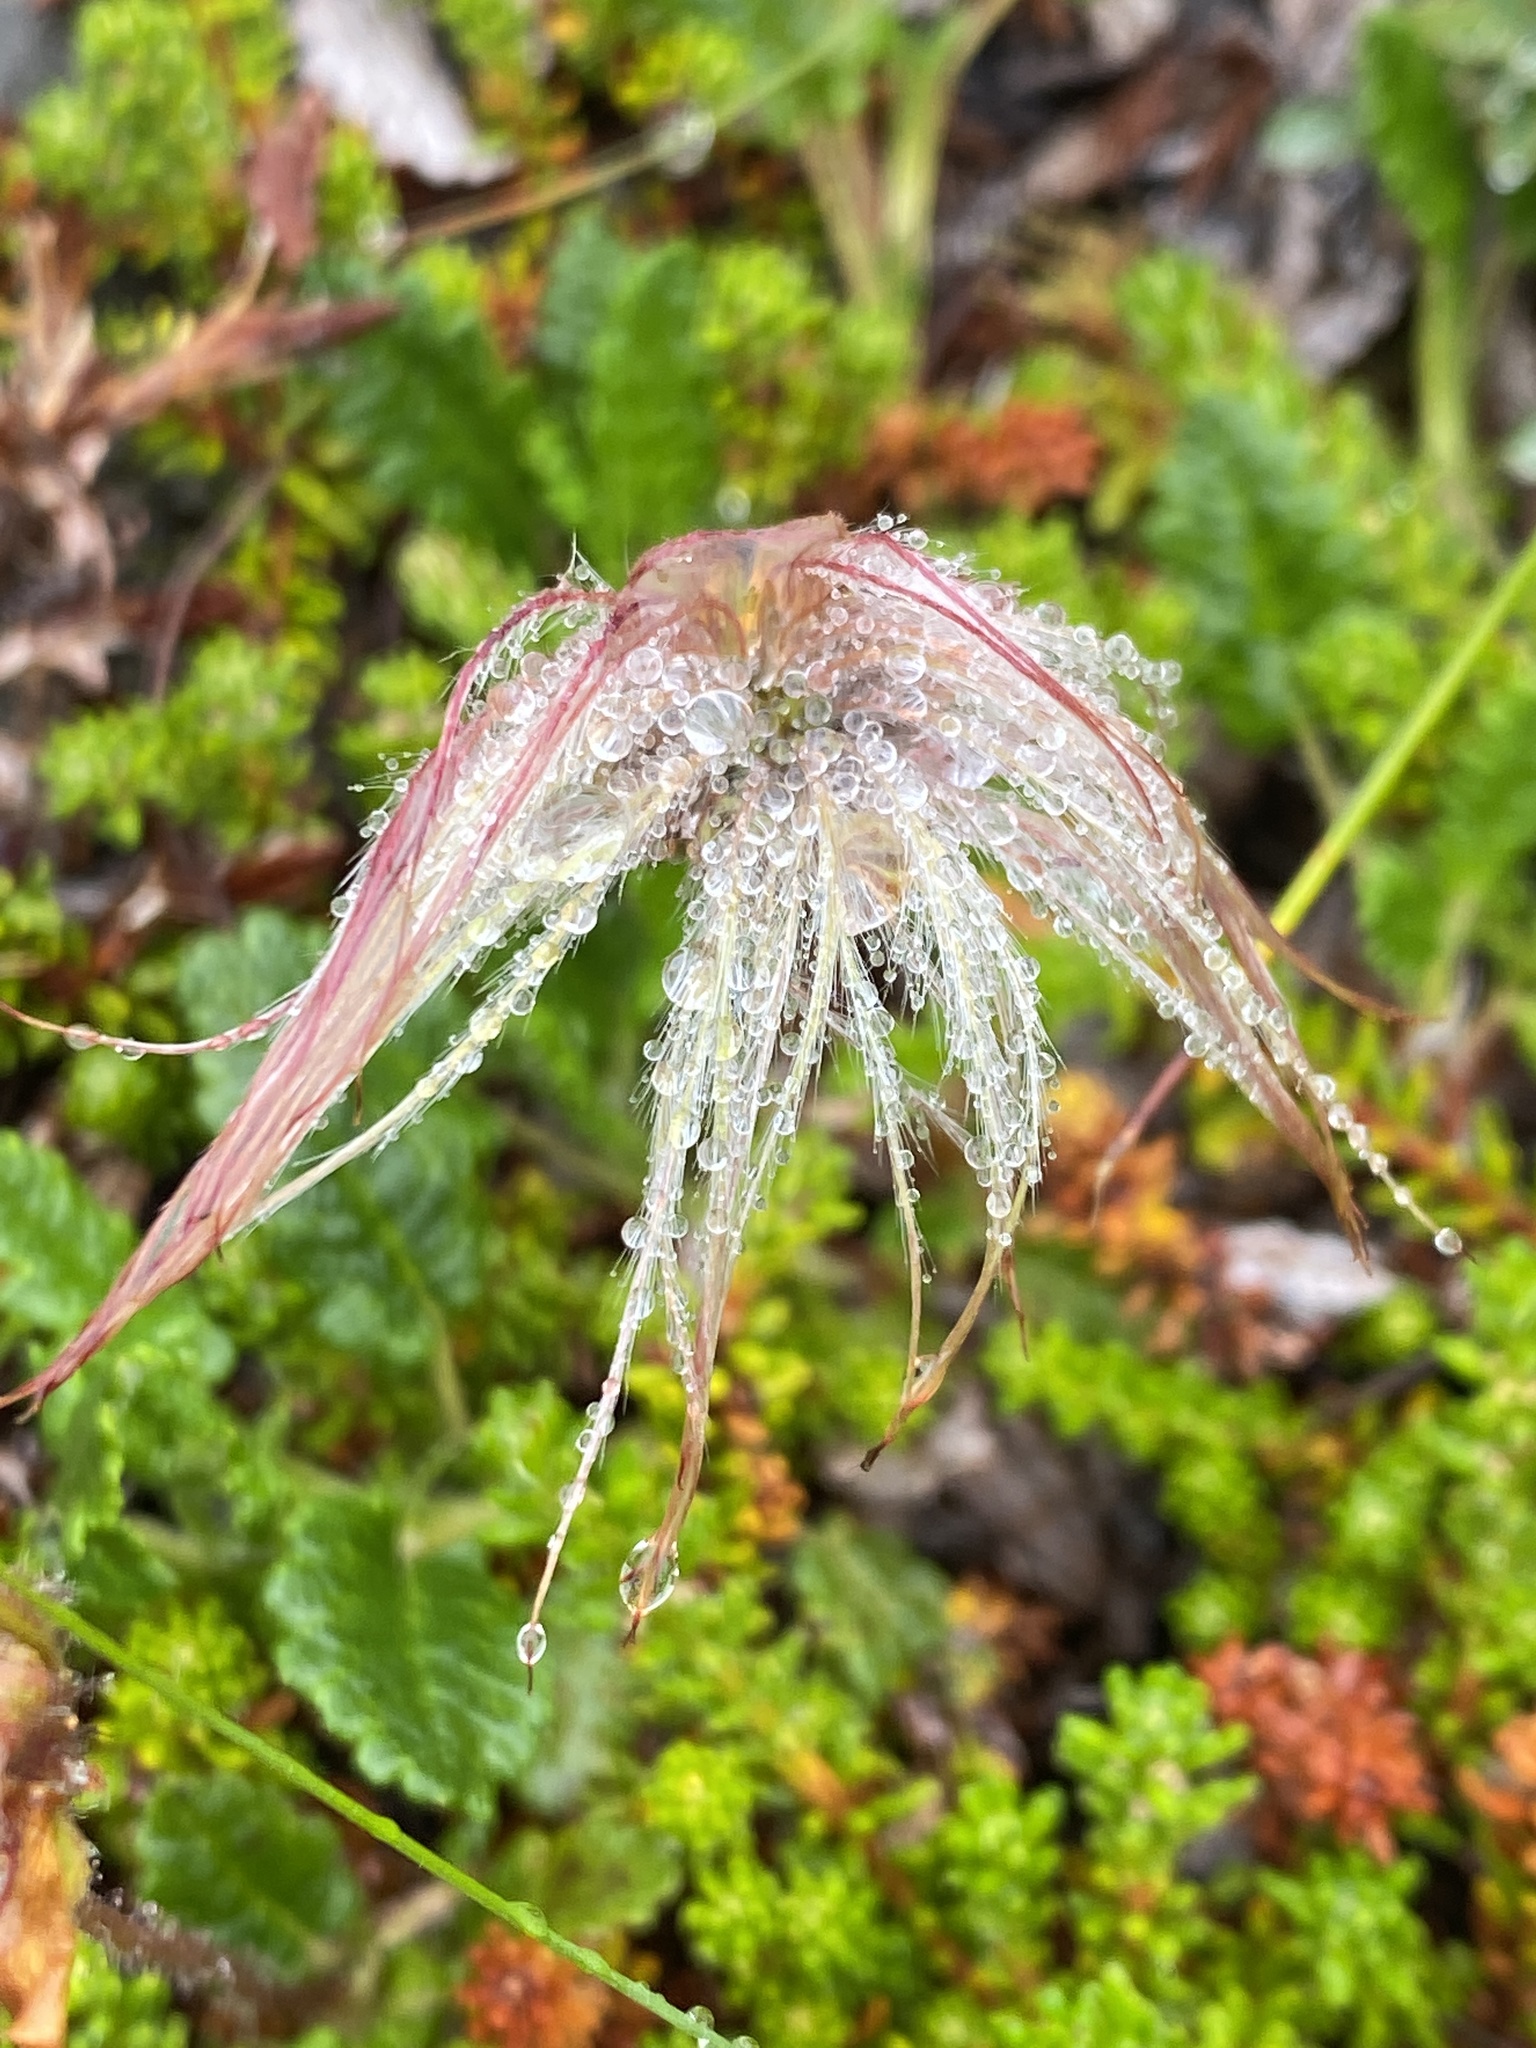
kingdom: Plantae
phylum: Tracheophyta
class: Magnoliopsida
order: Rosales
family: Rosaceae
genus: Dryas
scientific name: Dryas octopetala
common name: Eight-petal mountain-avens
